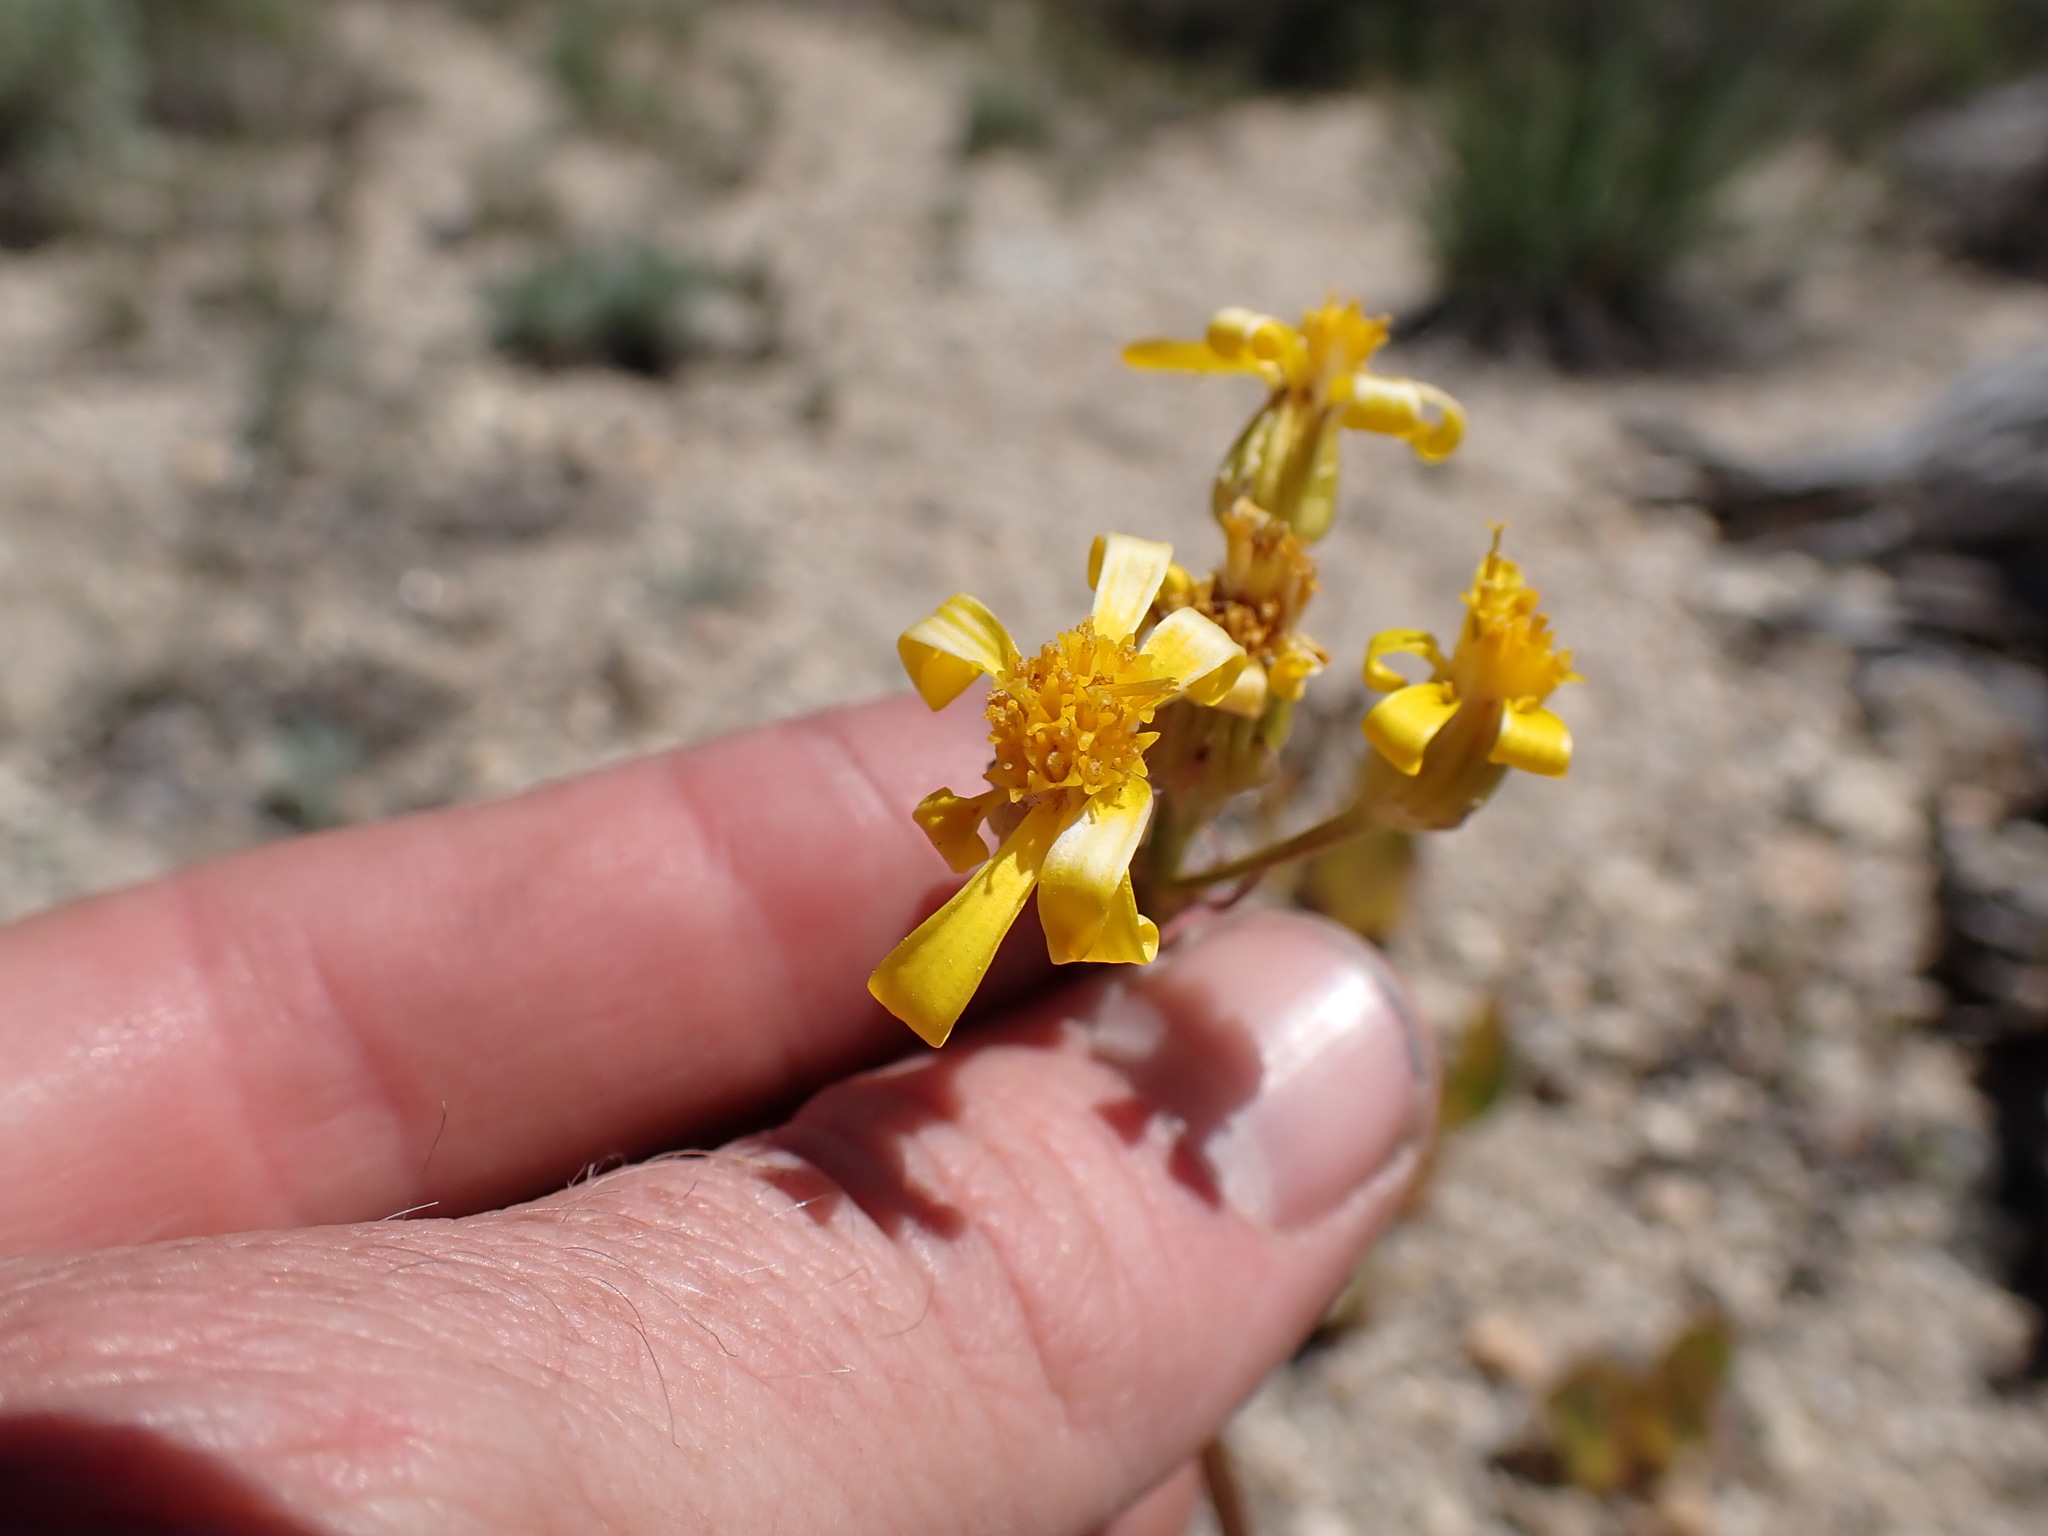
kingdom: Plantae
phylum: Tracheophyta
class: Magnoliopsida
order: Asterales
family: Asteraceae
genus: Senecio
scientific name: Senecio integerrimus
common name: Gaugeplant
